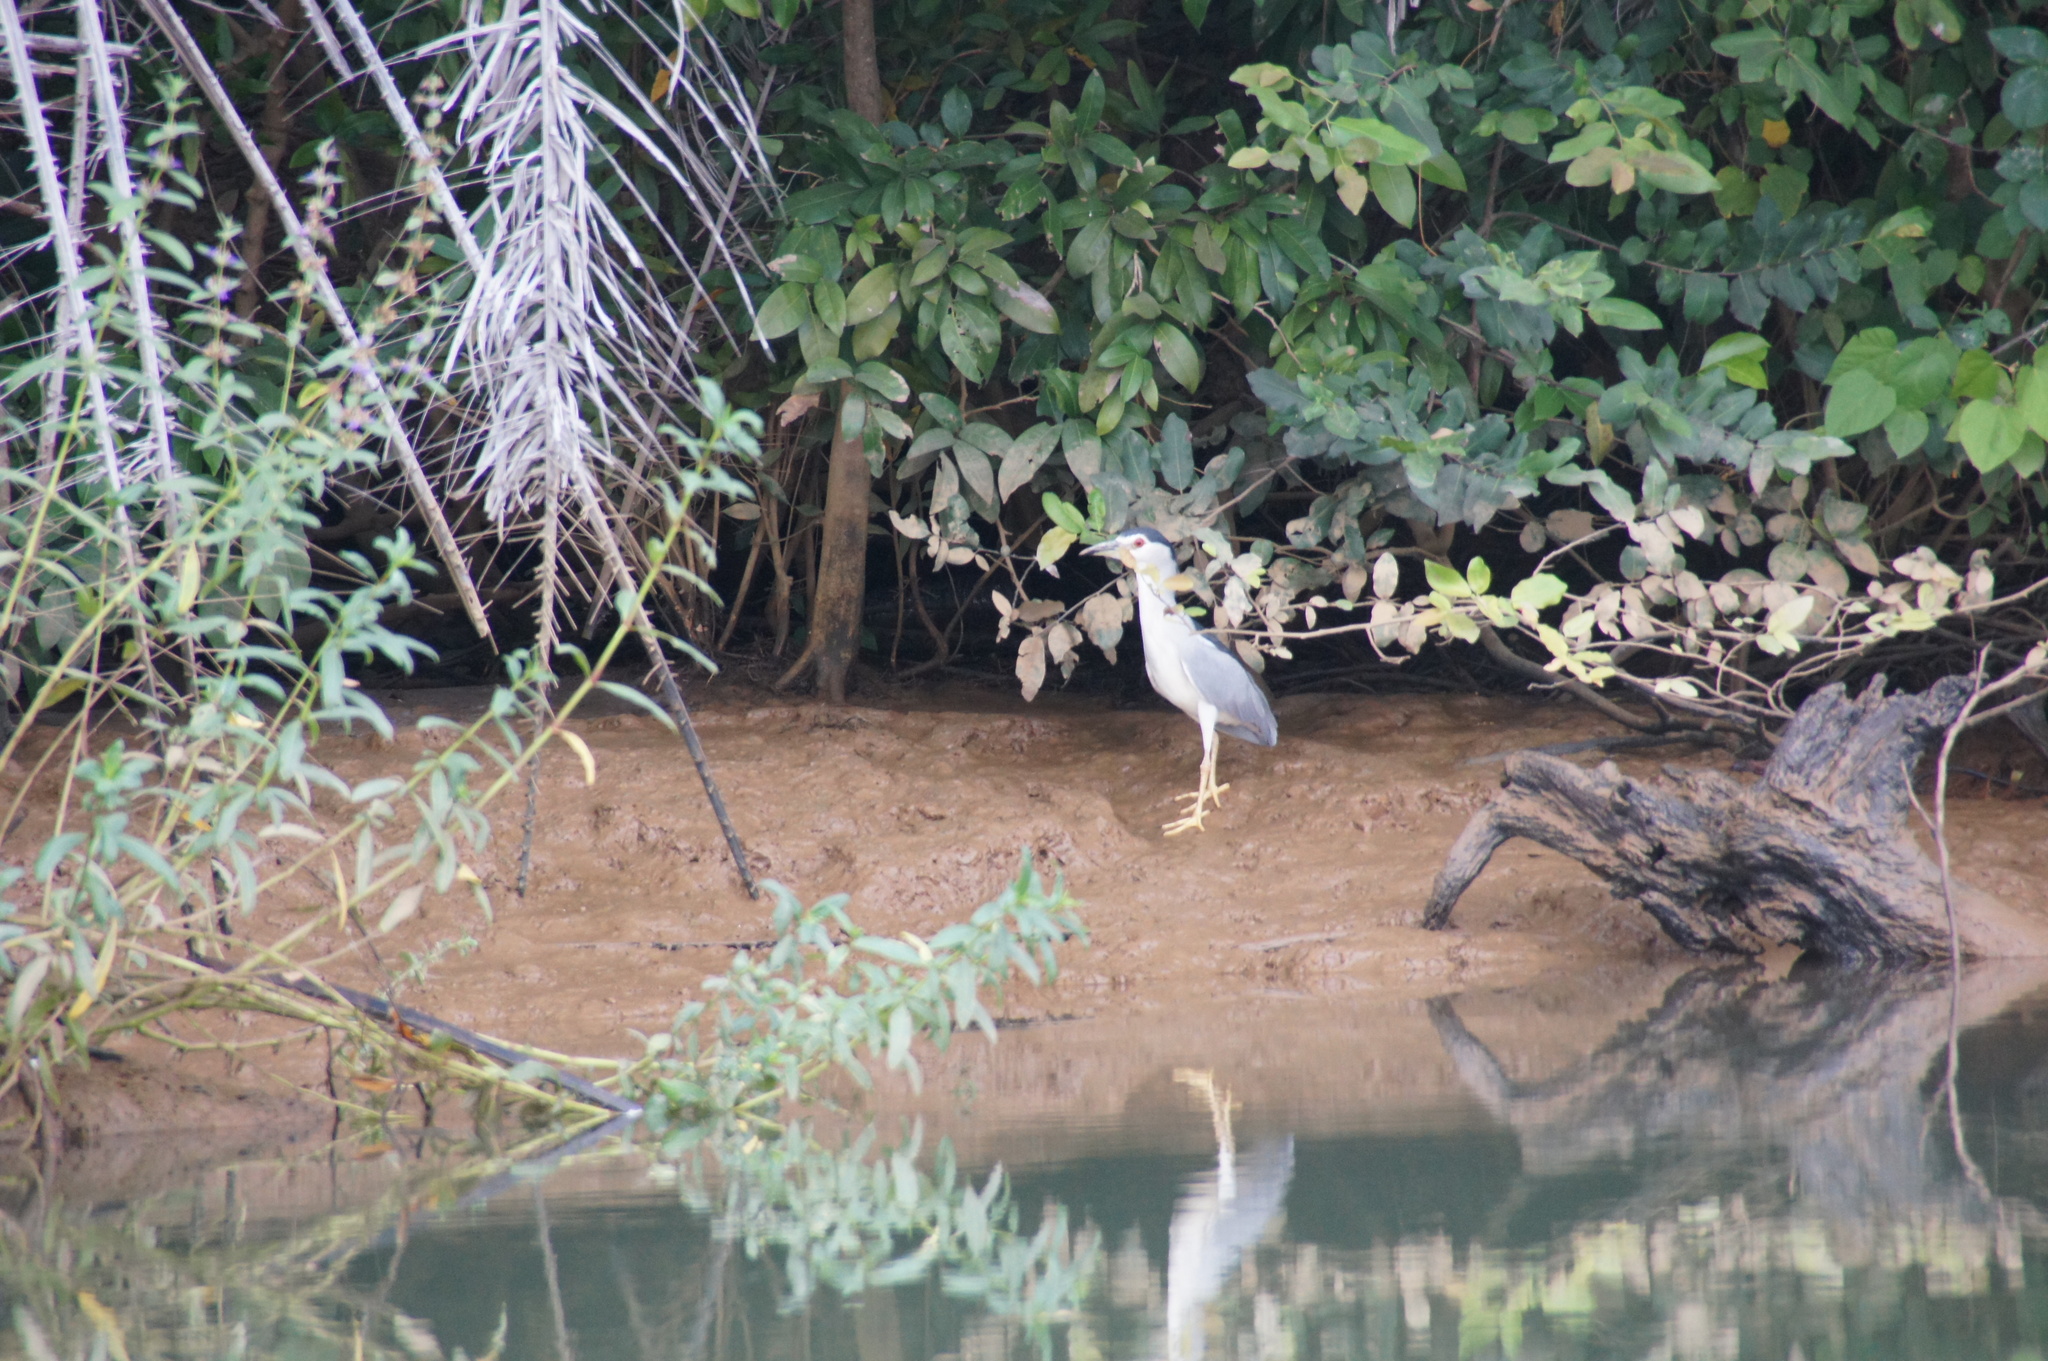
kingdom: Animalia
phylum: Chordata
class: Aves
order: Pelecaniformes
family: Ardeidae
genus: Nycticorax
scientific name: Nycticorax nycticorax
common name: Black-crowned night heron
